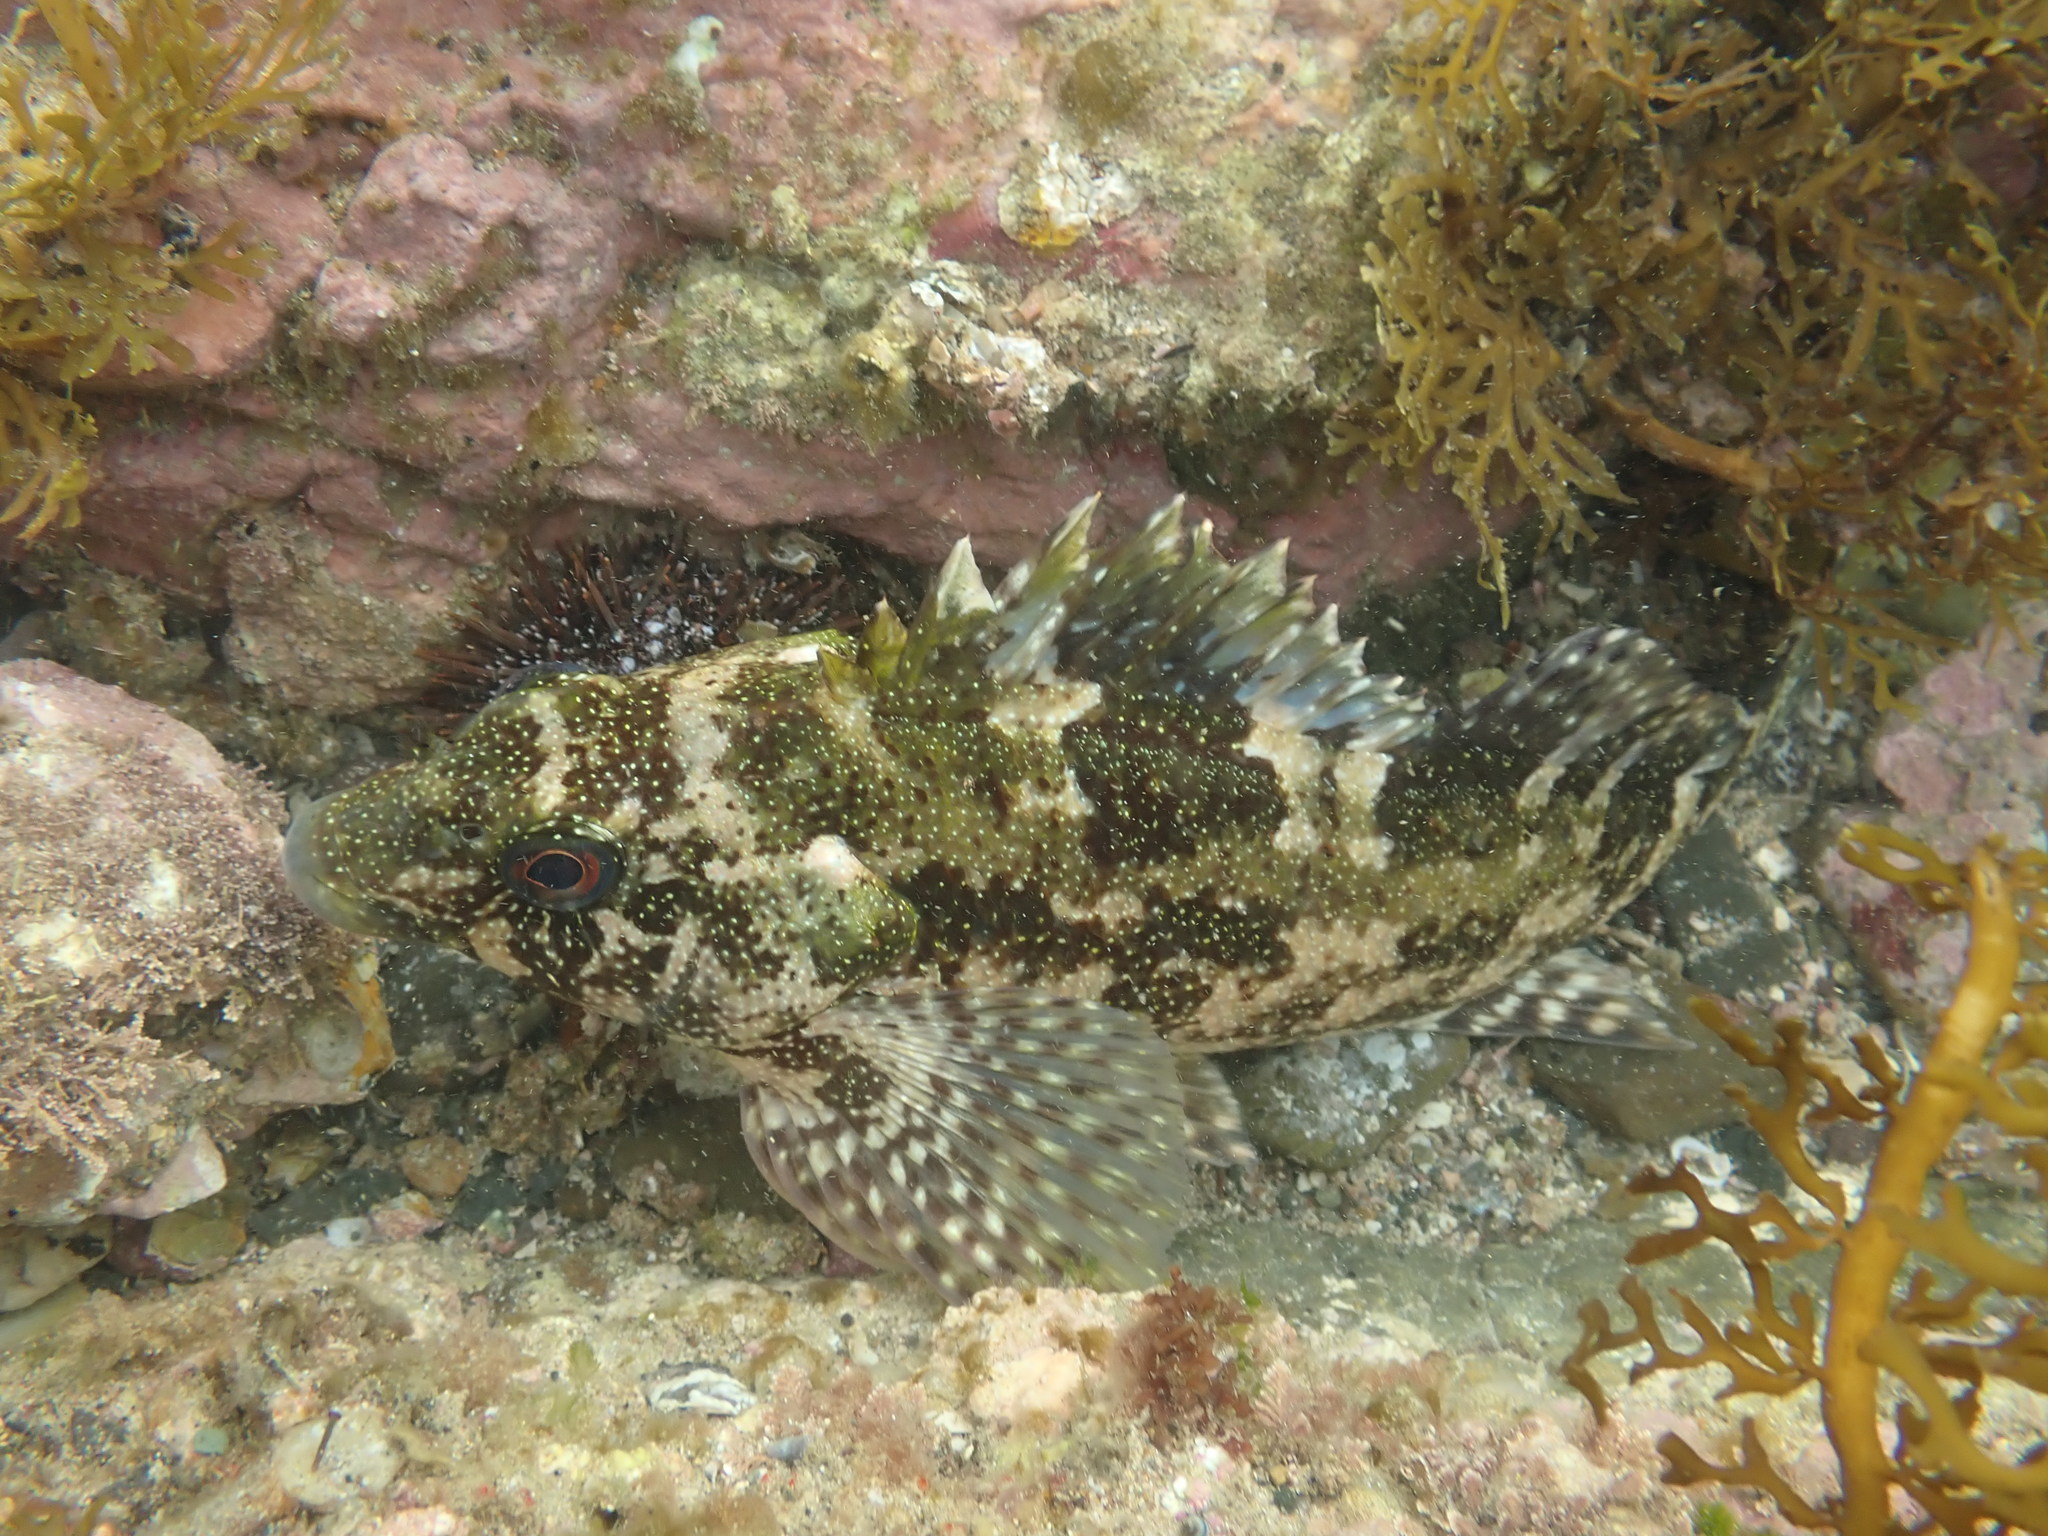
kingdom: Animalia
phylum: Chordata
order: Perciformes
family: Chironemidae
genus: Chironemus
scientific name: Chironemus marmoratus
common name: Kelpfish
